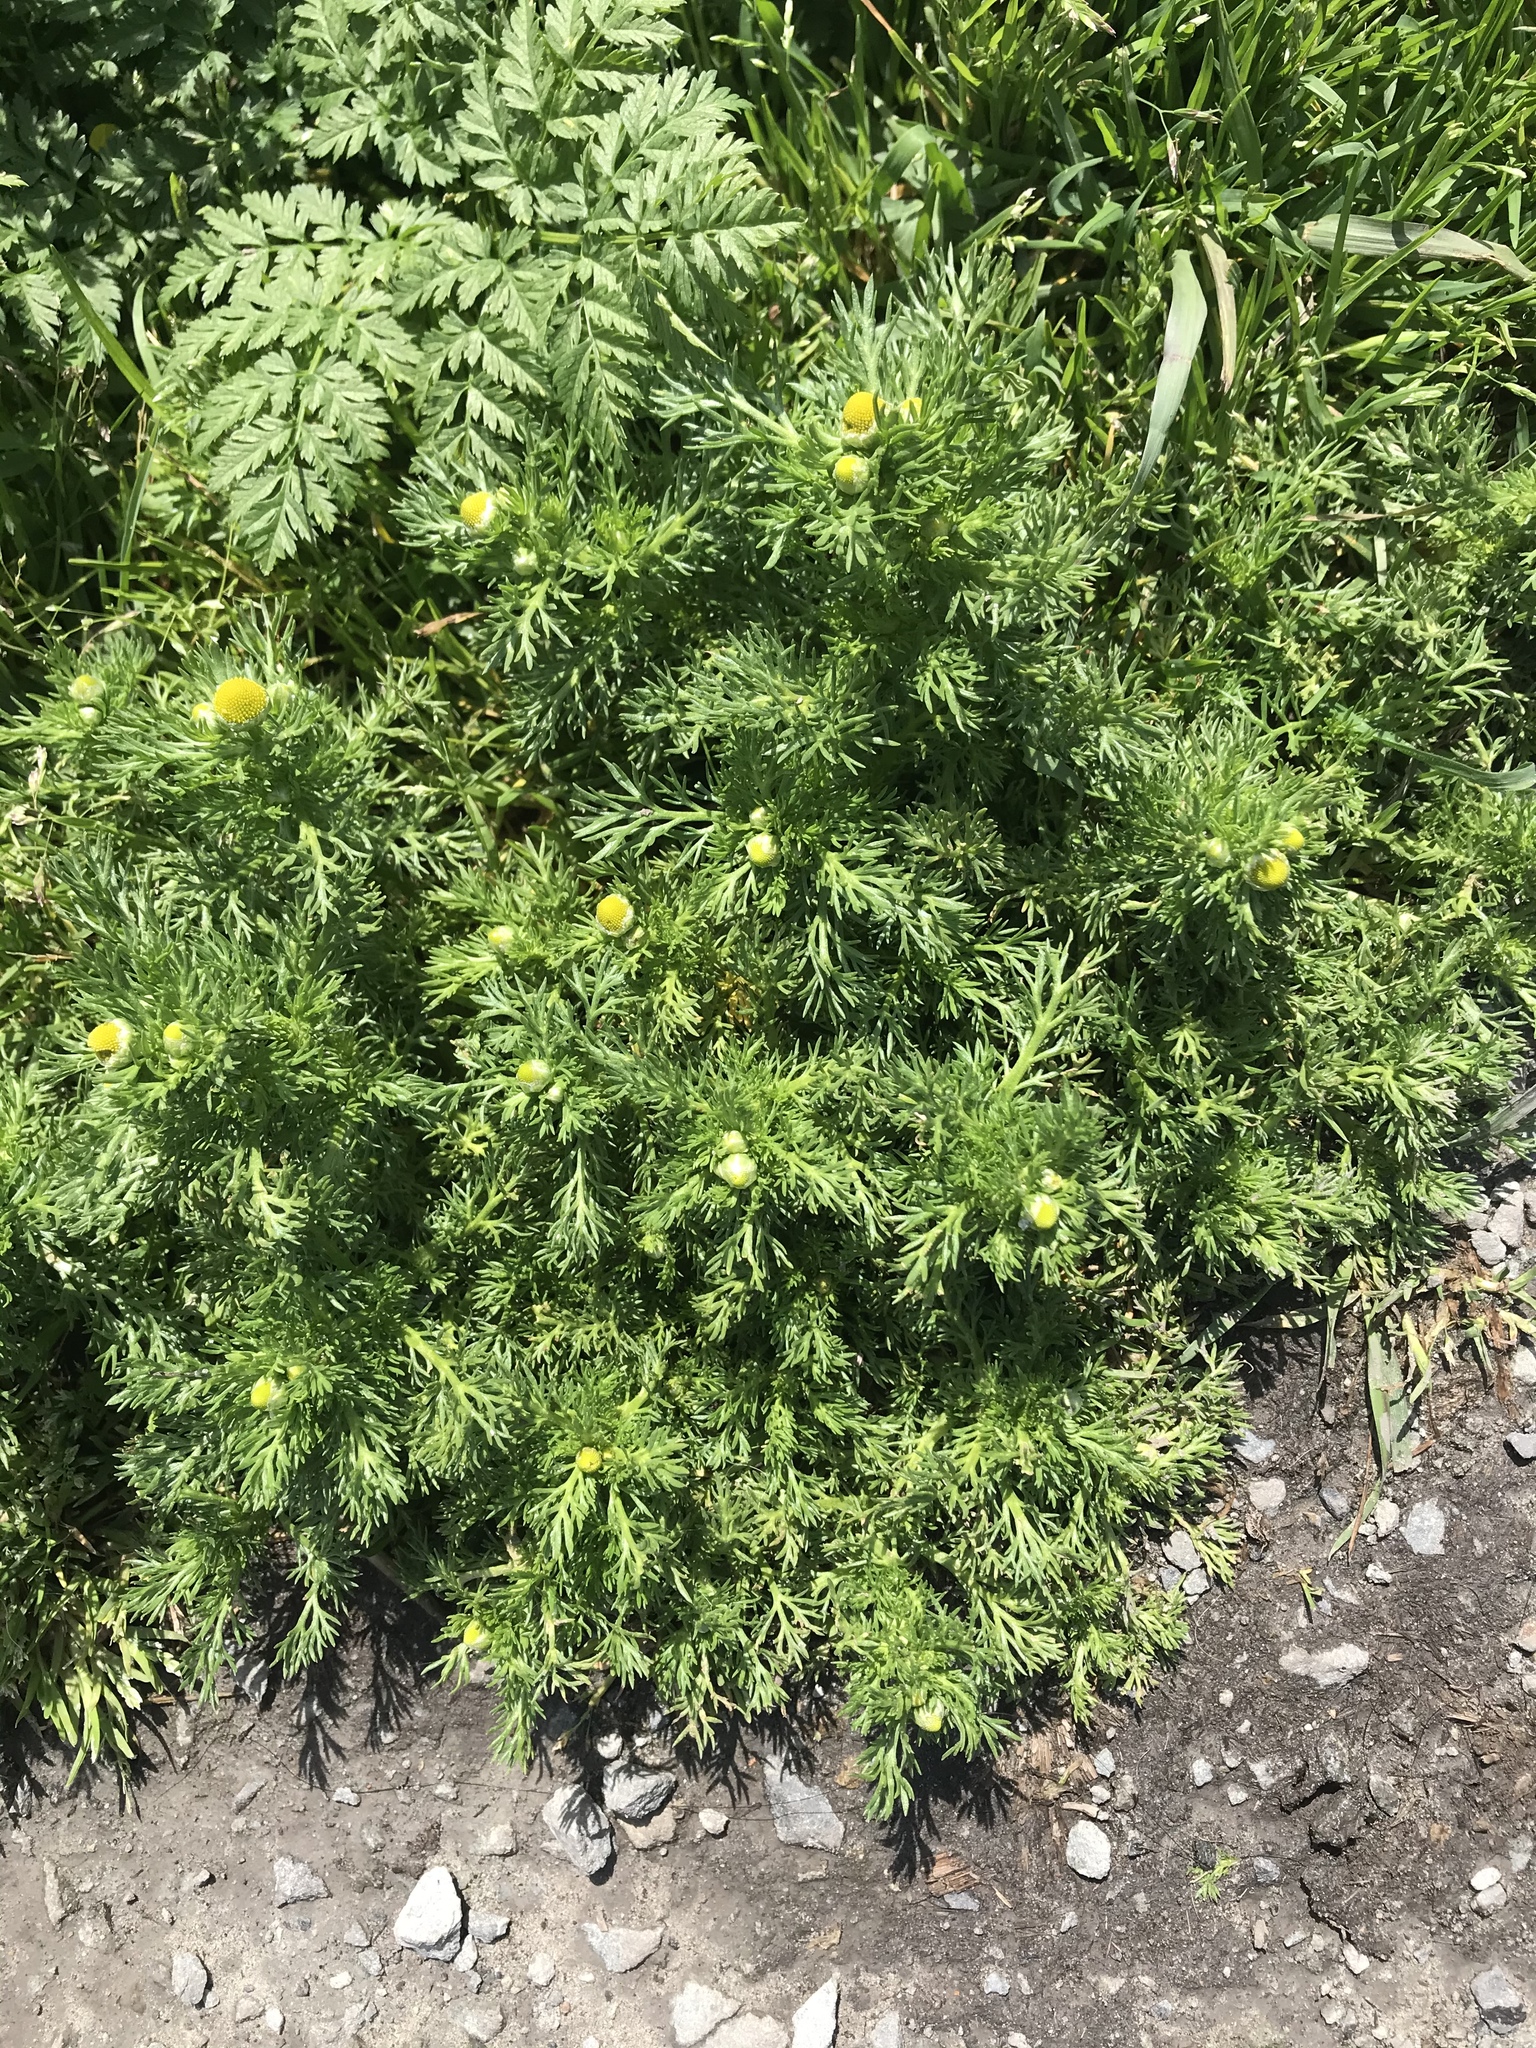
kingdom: Plantae
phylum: Tracheophyta
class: Magnoliopsida
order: Asterales
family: Asteraceae
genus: Matricaria
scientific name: Matricaria discoidea
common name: Disc mayweed
